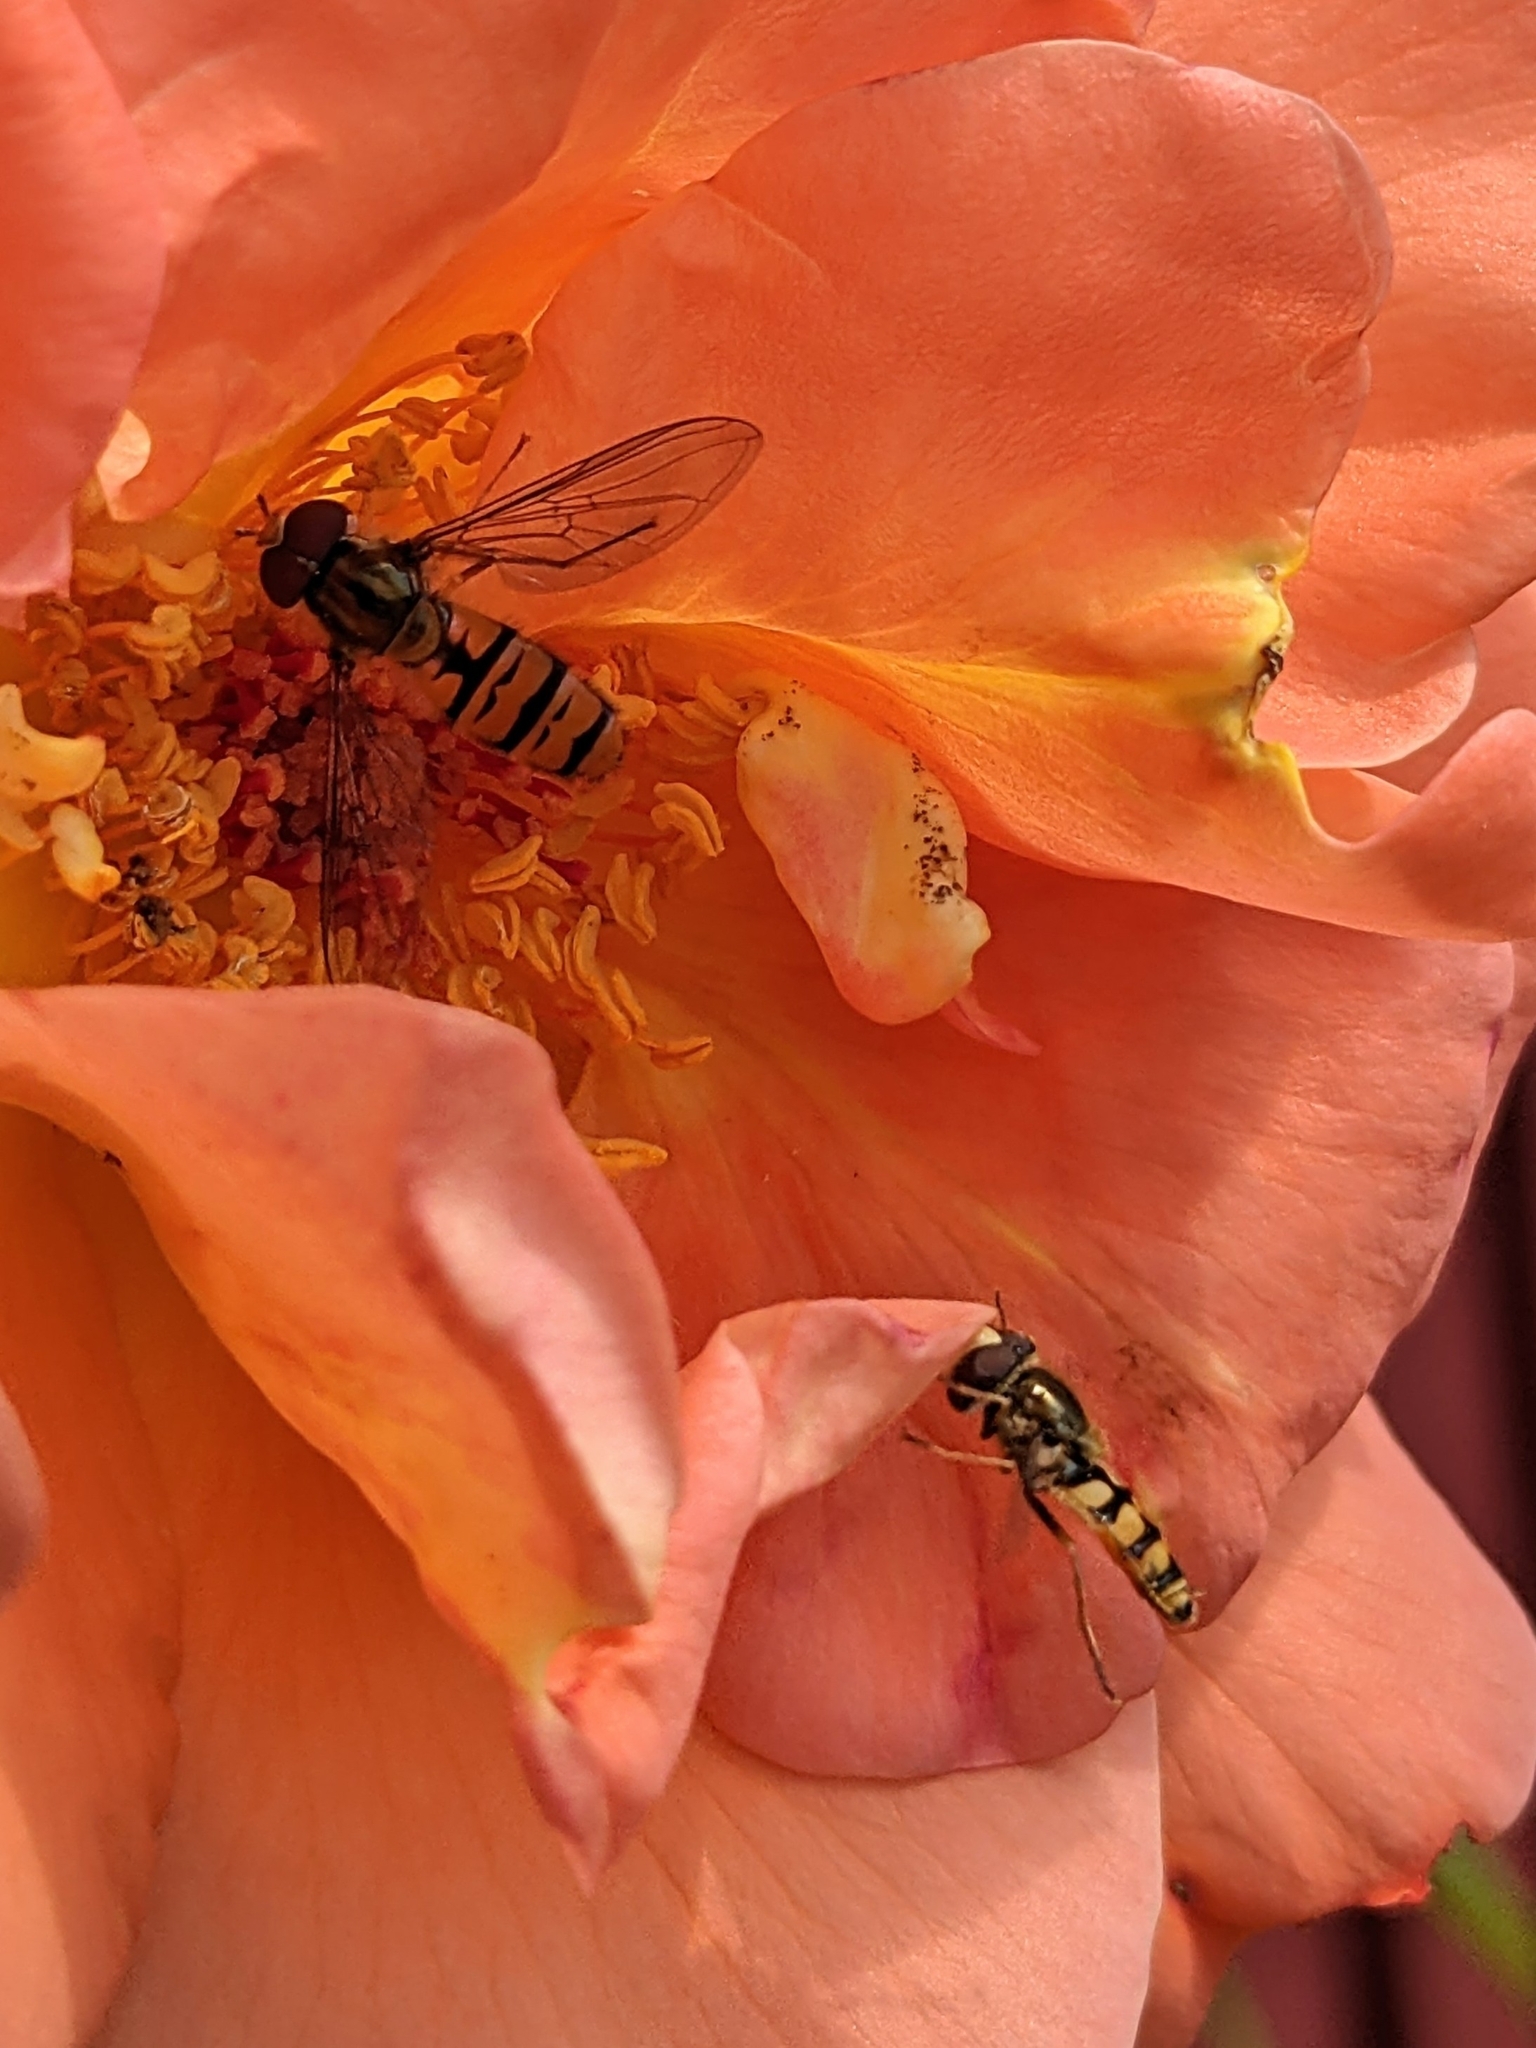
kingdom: Animalia
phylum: Arthropoda
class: Insecta
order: Diptera
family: Syrphidae
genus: Episyrphus
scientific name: Episyrphus balteatus
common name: Marmalade hoverfly
